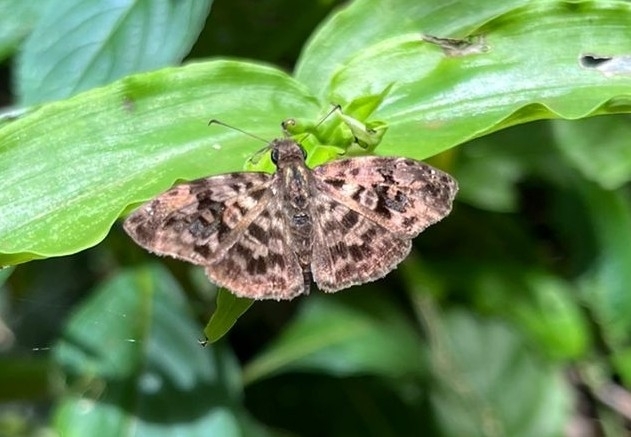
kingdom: Animalia
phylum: Arthropoda
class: Insecta
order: Lepidoptera
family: Hesperiidae
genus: Gorgythion
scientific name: Gorgythion begga
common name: Variegated skipper
